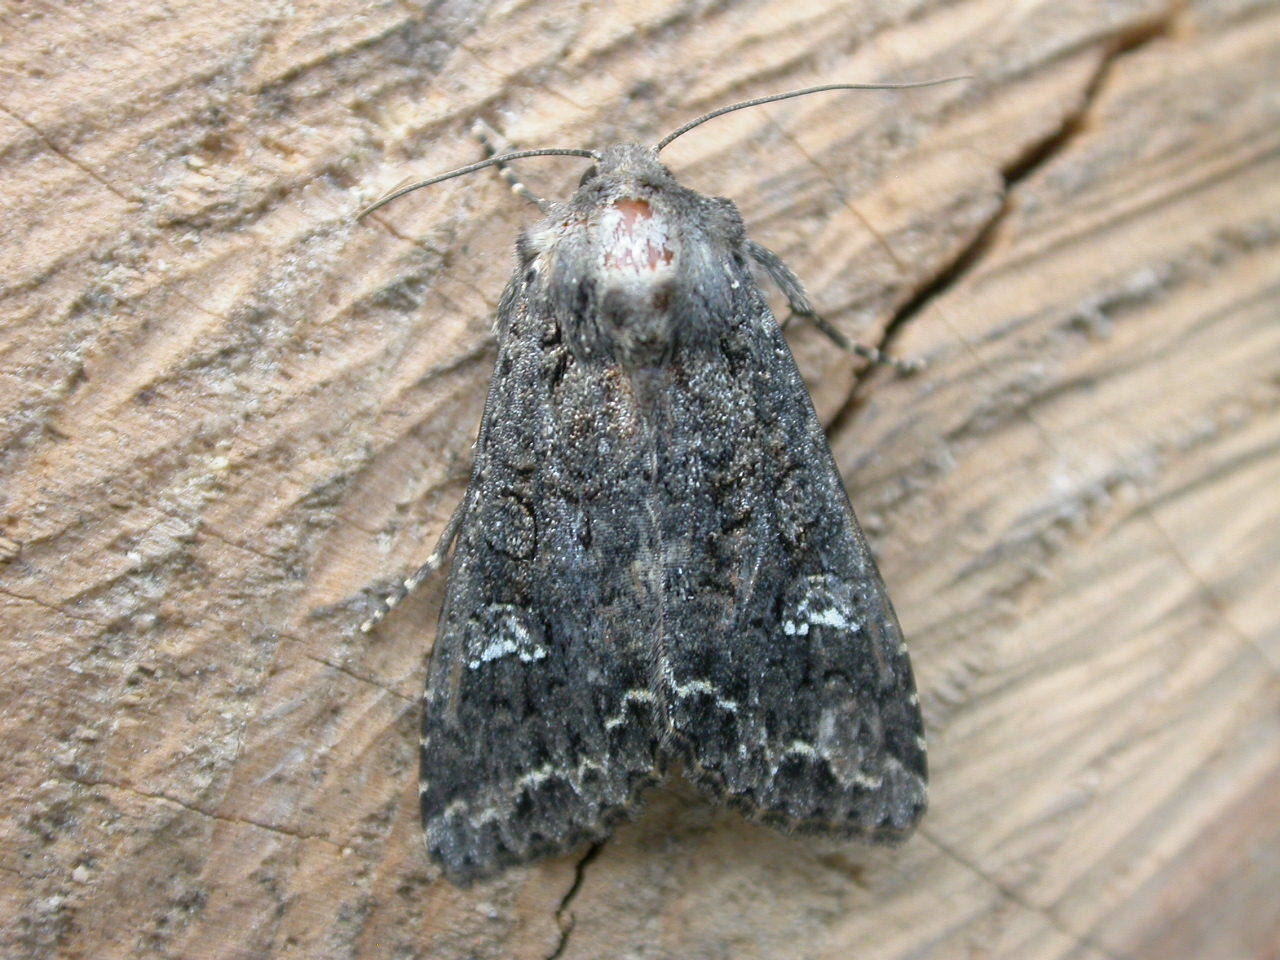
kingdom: Animalia
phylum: Arthropoda
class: Insecta
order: Lepidoptera
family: Noctuidae
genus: Mamestra
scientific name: Mamestra brassicae
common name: Cabbage moth
